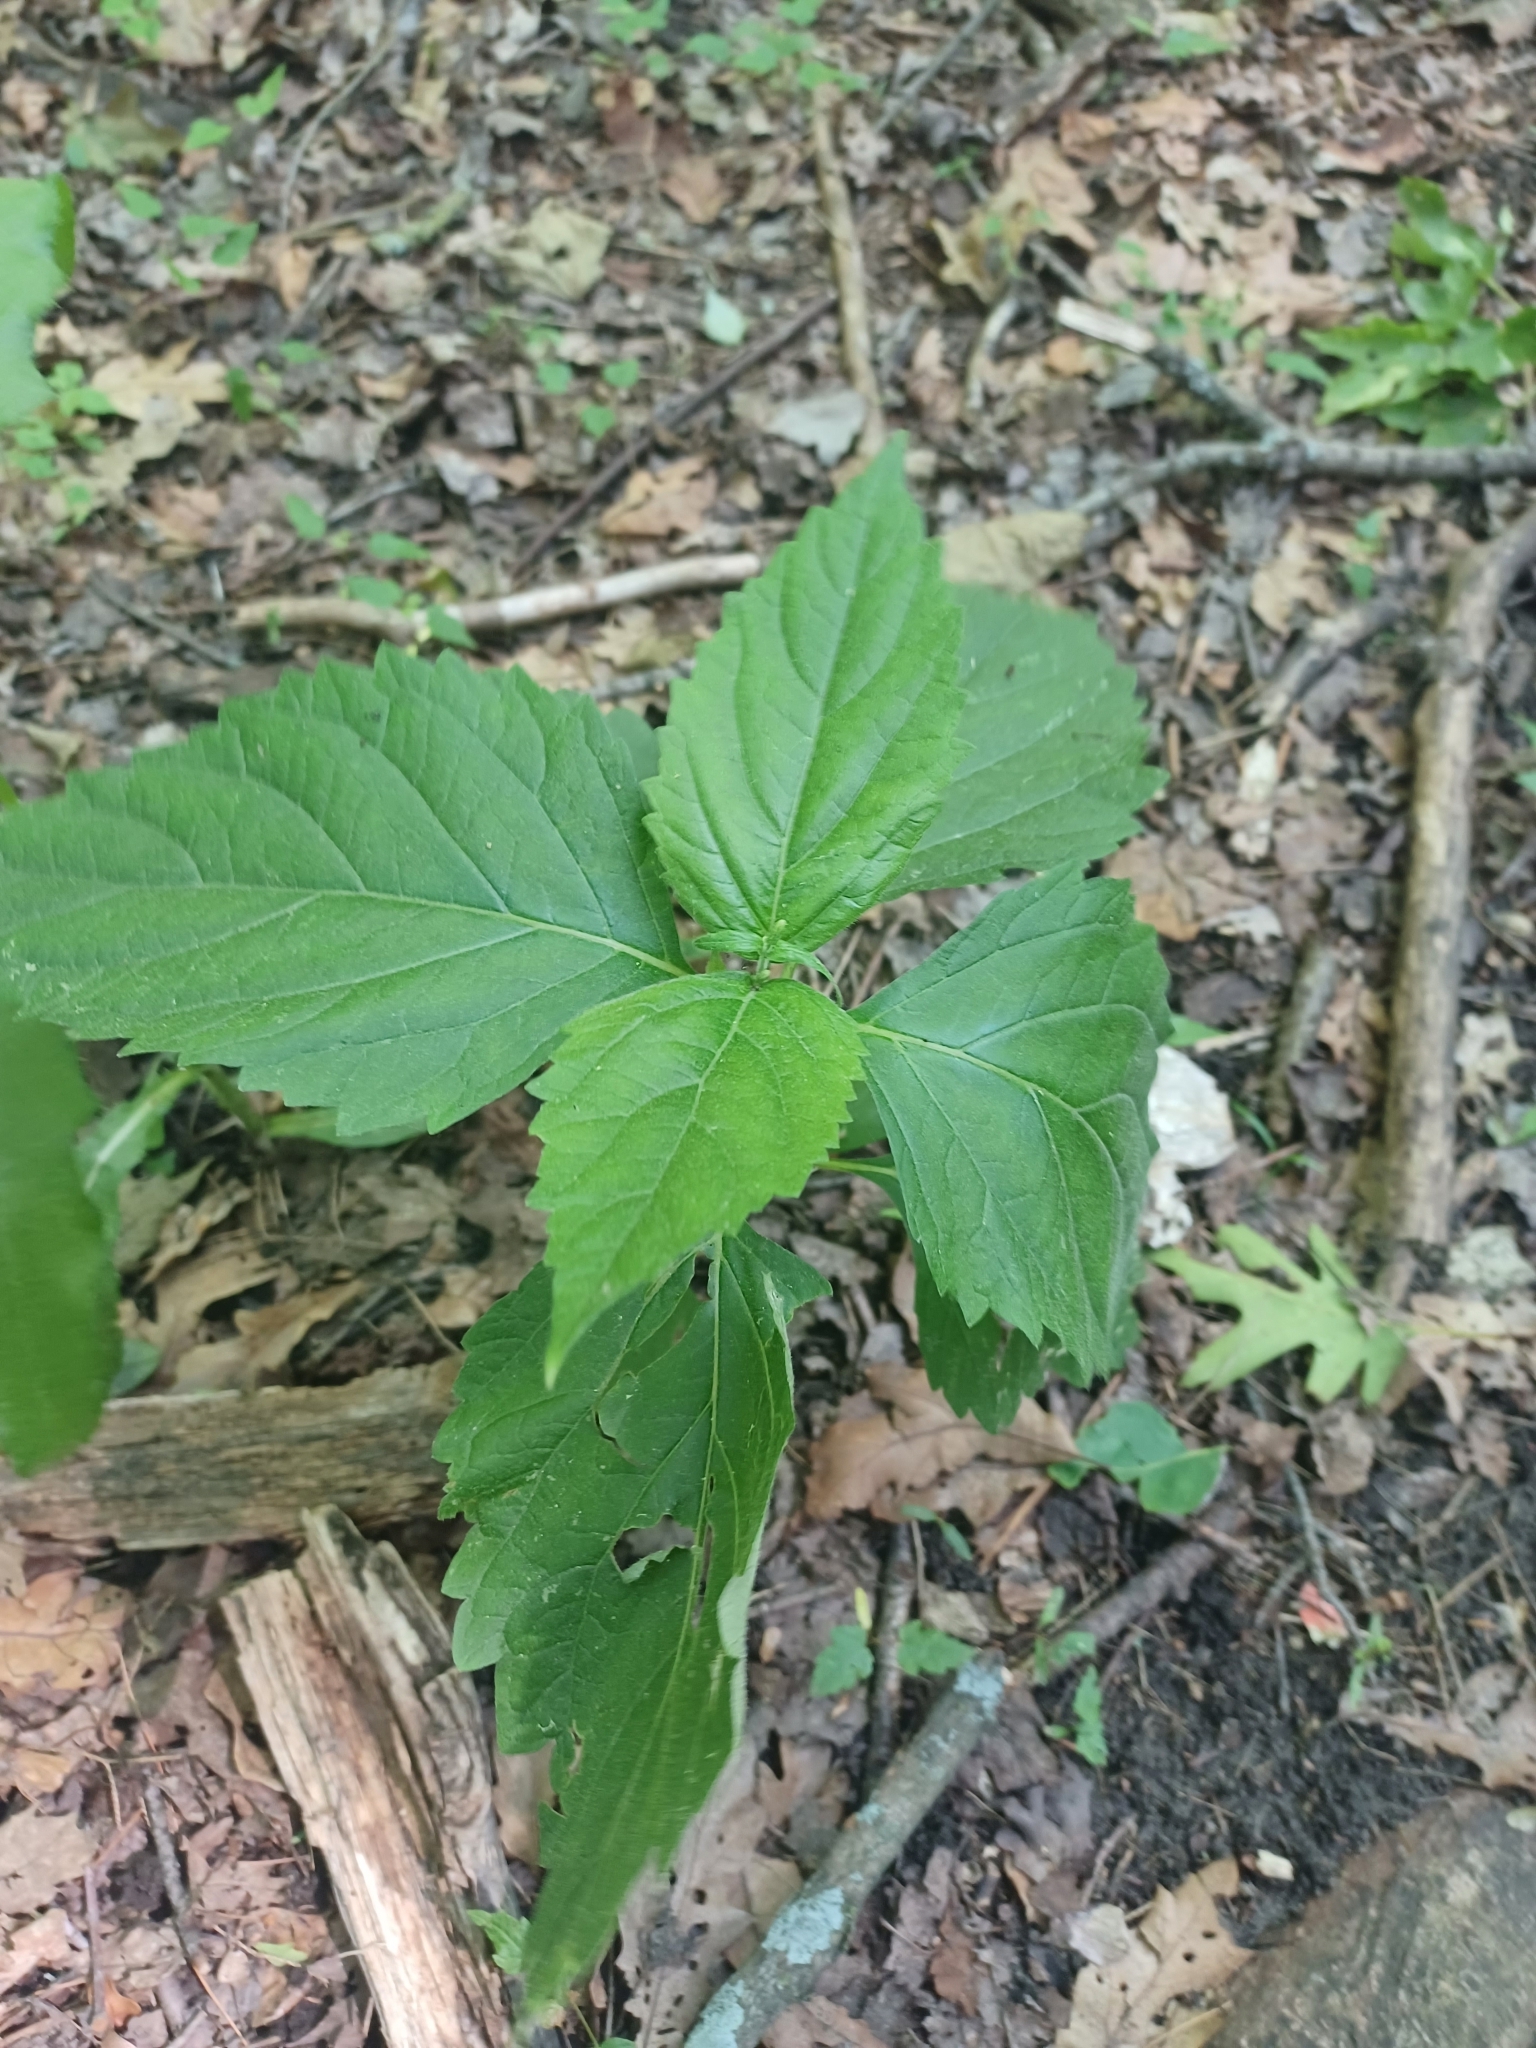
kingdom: Plantae
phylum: Tracheophyta
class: Magnoliopsida
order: Lamiales
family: Phrymaceae
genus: Phryma
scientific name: Phryma leptostachya
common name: American lopseed
